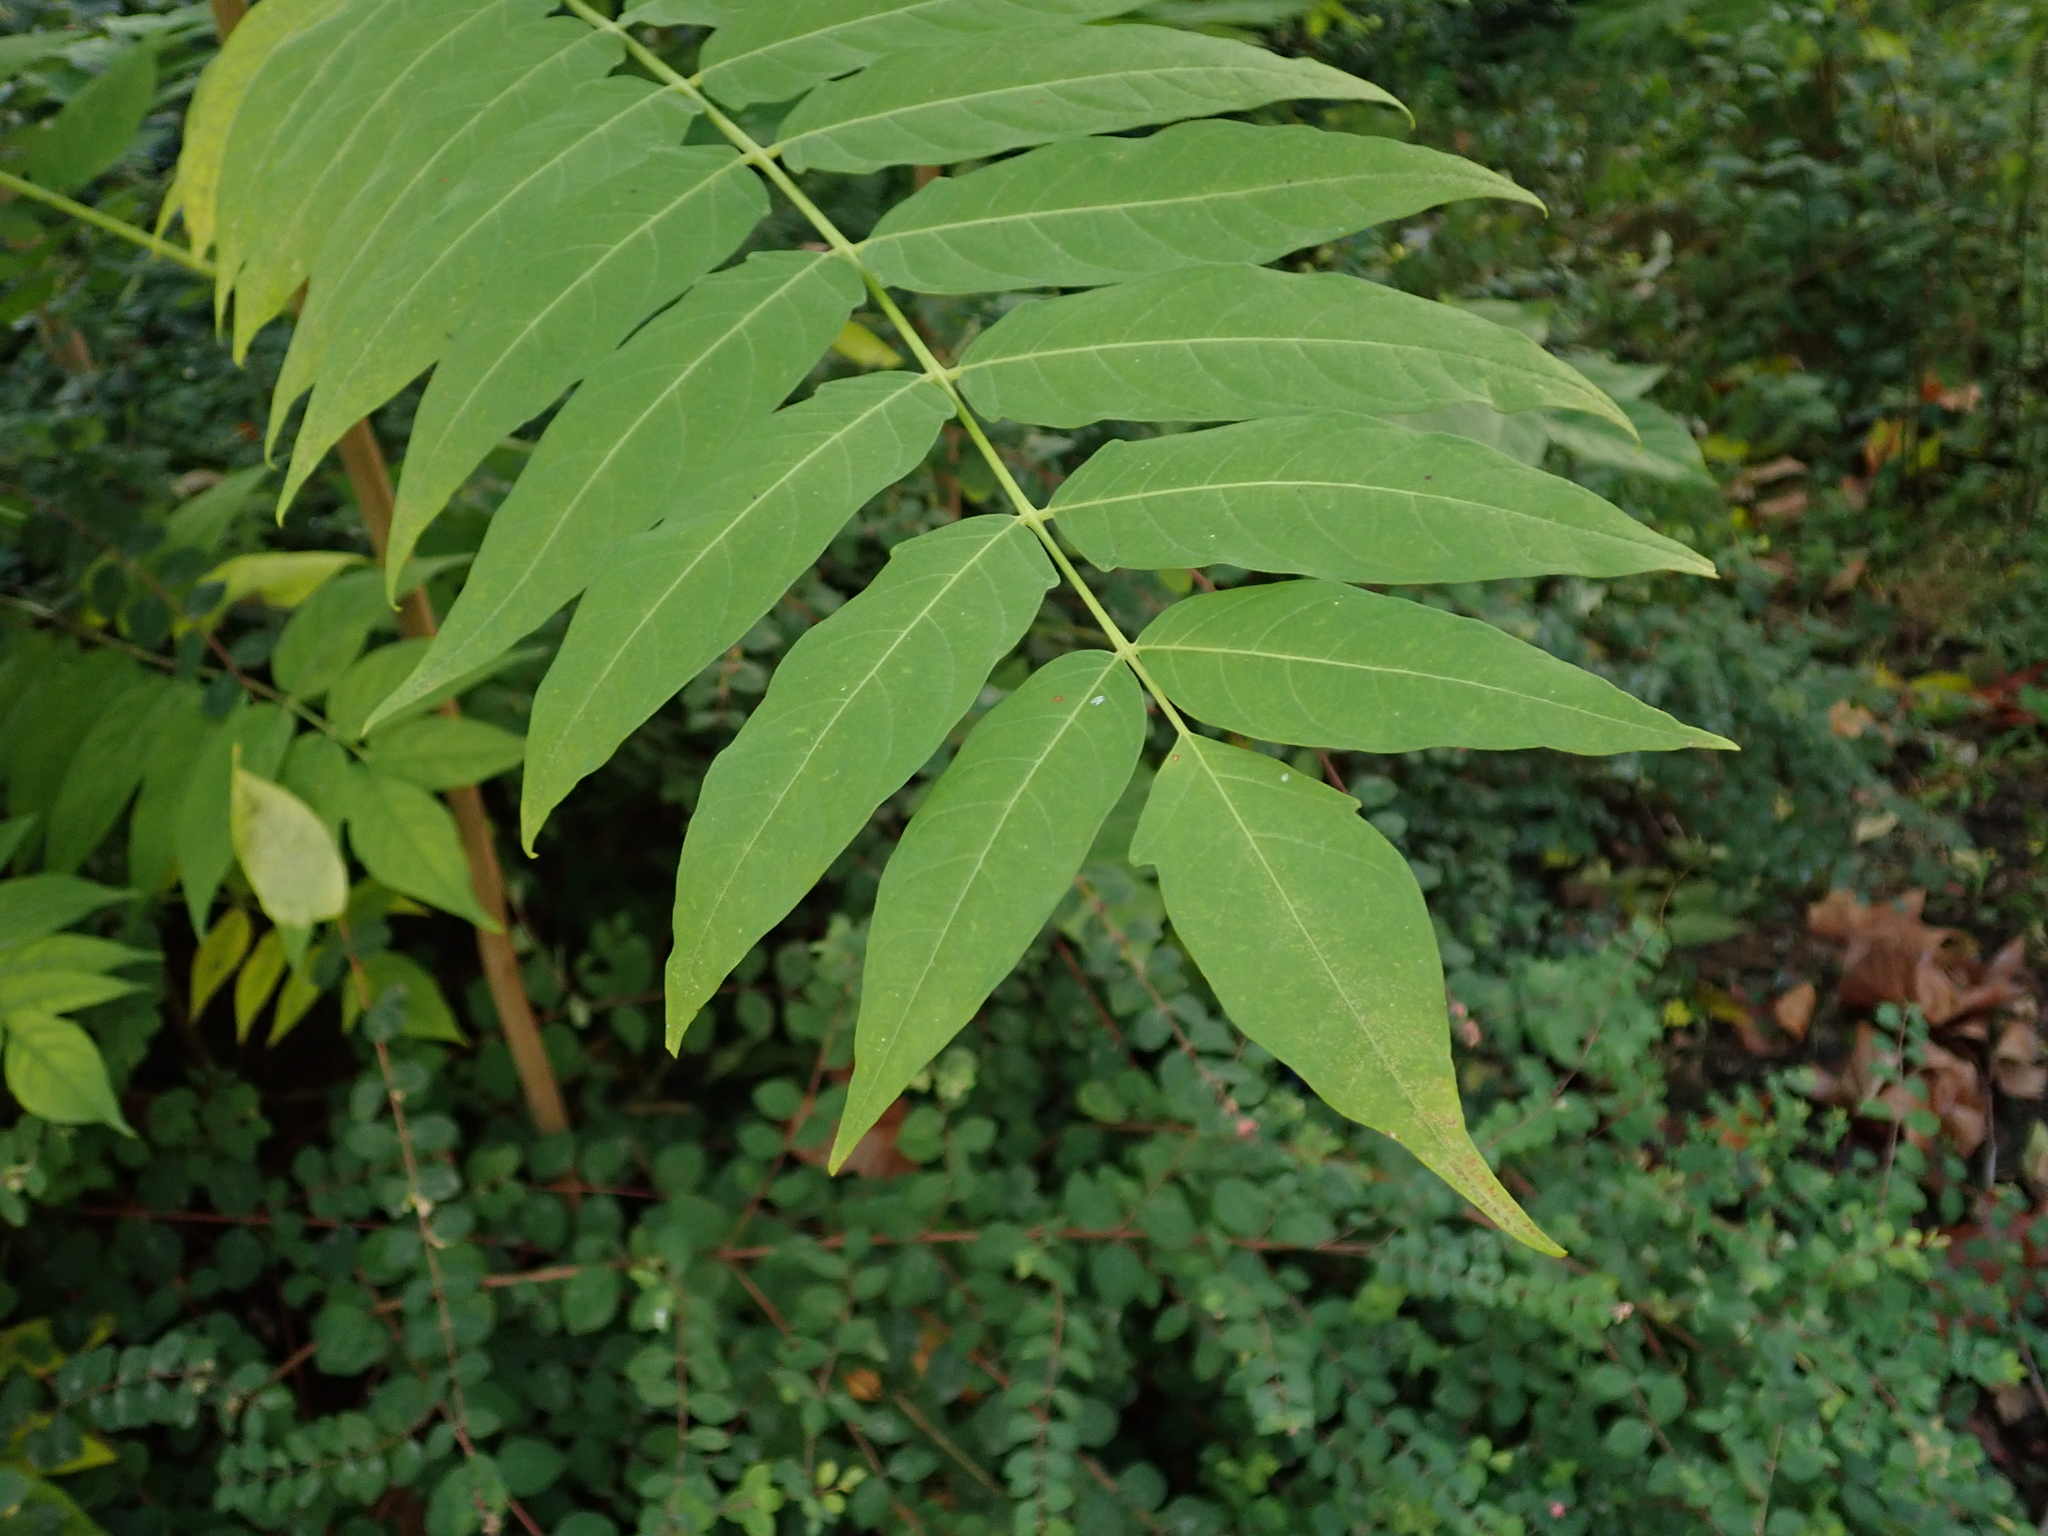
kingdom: Plantae
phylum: Tracheophyta
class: Magnoliopsida
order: Sapindales
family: Simaroubaceae
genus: Ailanthus
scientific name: Ailanthus altissima
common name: Tree-of-heaven
